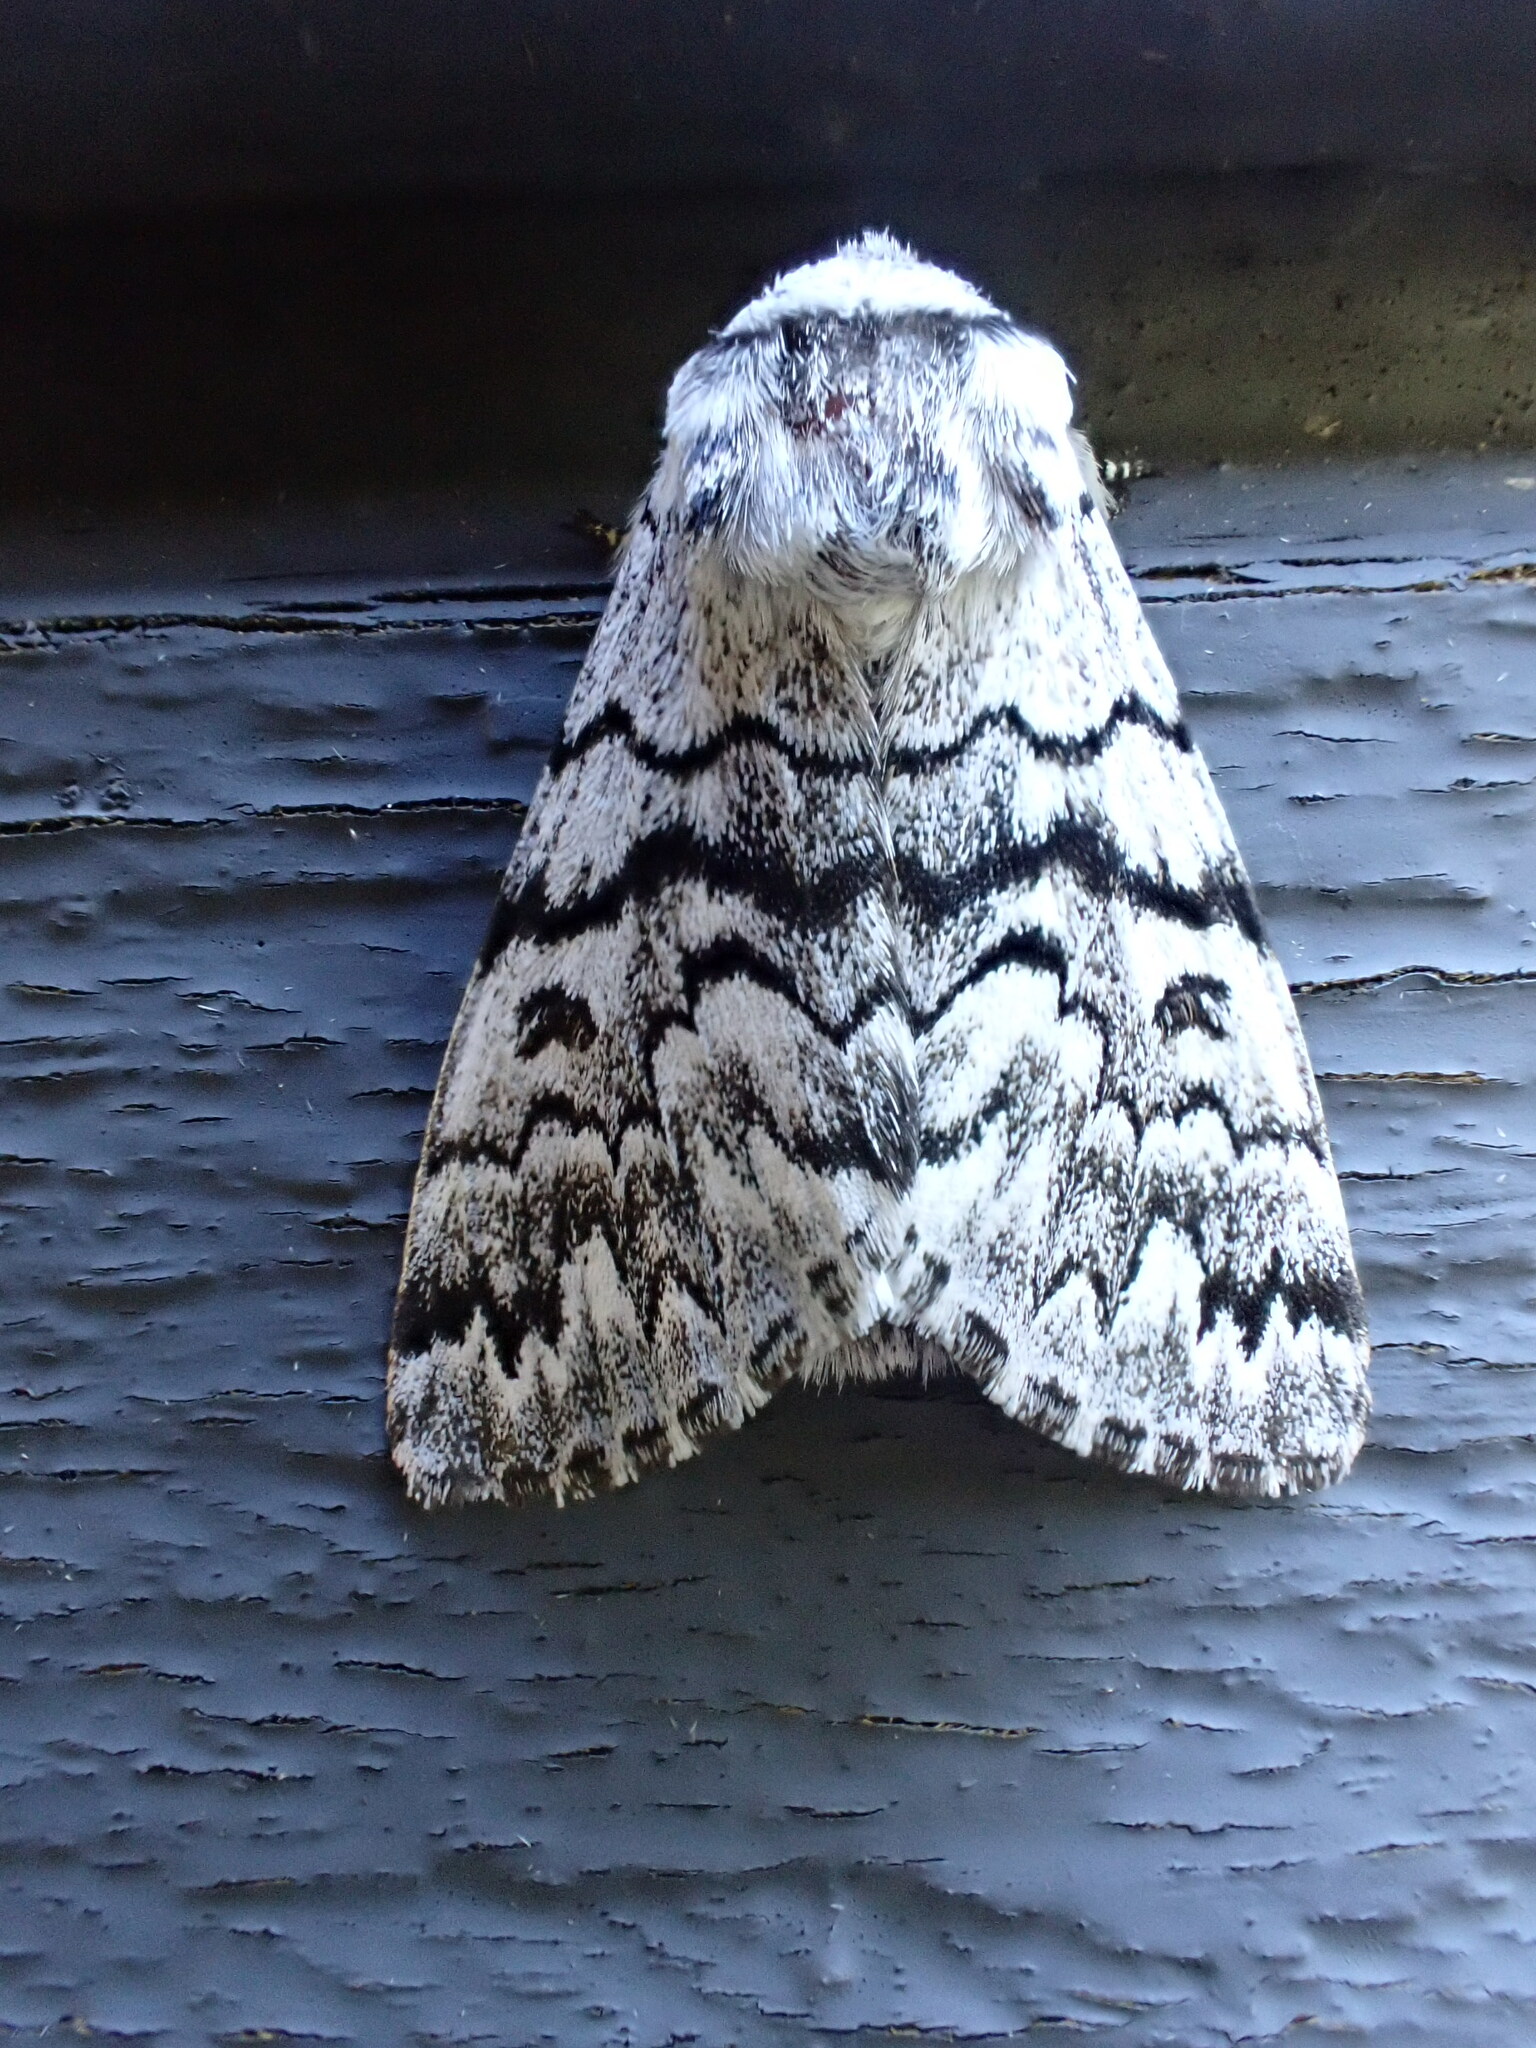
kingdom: Animalia
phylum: Arthropoda
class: Insecta
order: Lepidoptera
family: Noctuidae
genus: Panthea
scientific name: Panthea virginarius
